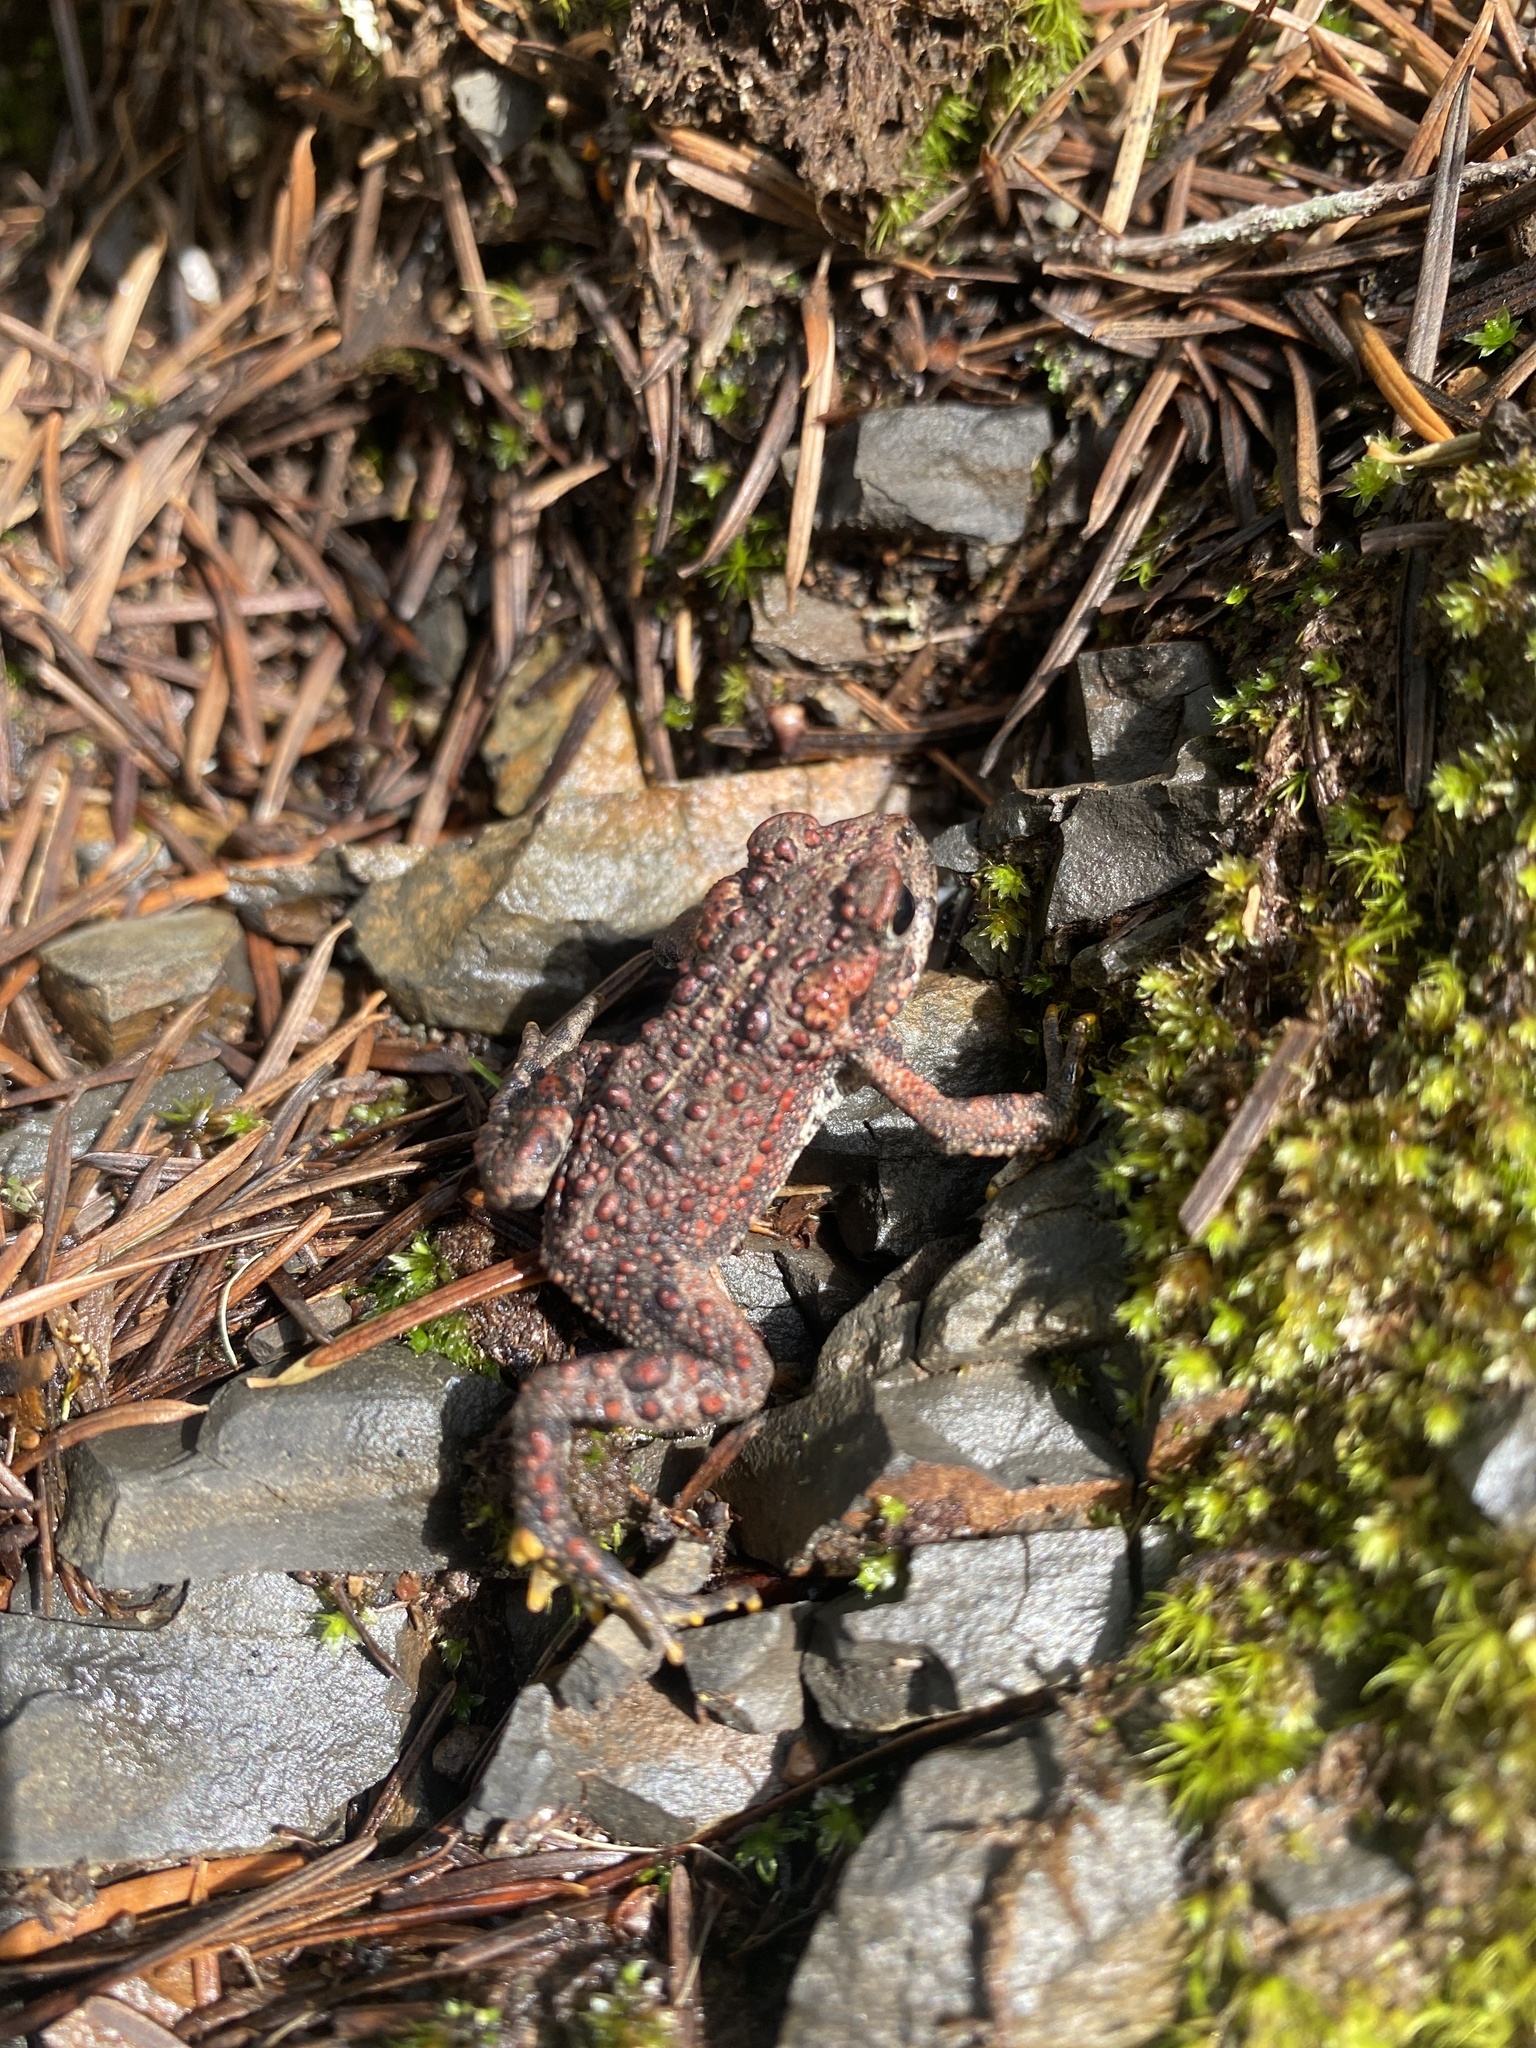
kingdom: Animalia
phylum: Chordata
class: Amphibia
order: Anura
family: Bufonidae
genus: Anaxyrus
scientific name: Anaxyrus boreas
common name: Western toad
